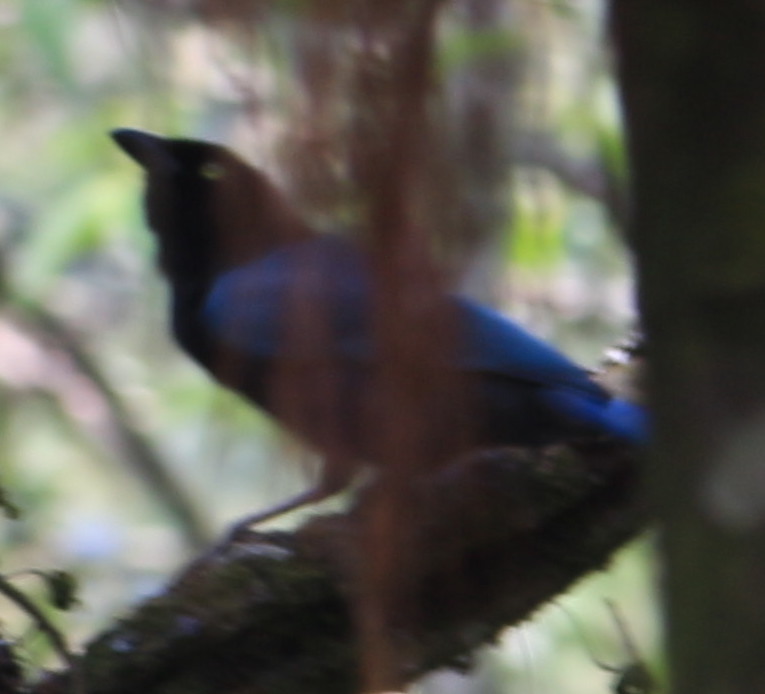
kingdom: Animalia
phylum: Chordata
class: Aves
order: Passeriformes
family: Corvidae
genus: Cyanocorax
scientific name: Cyanocorax melanocyaneus
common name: Bushy-crested jay
